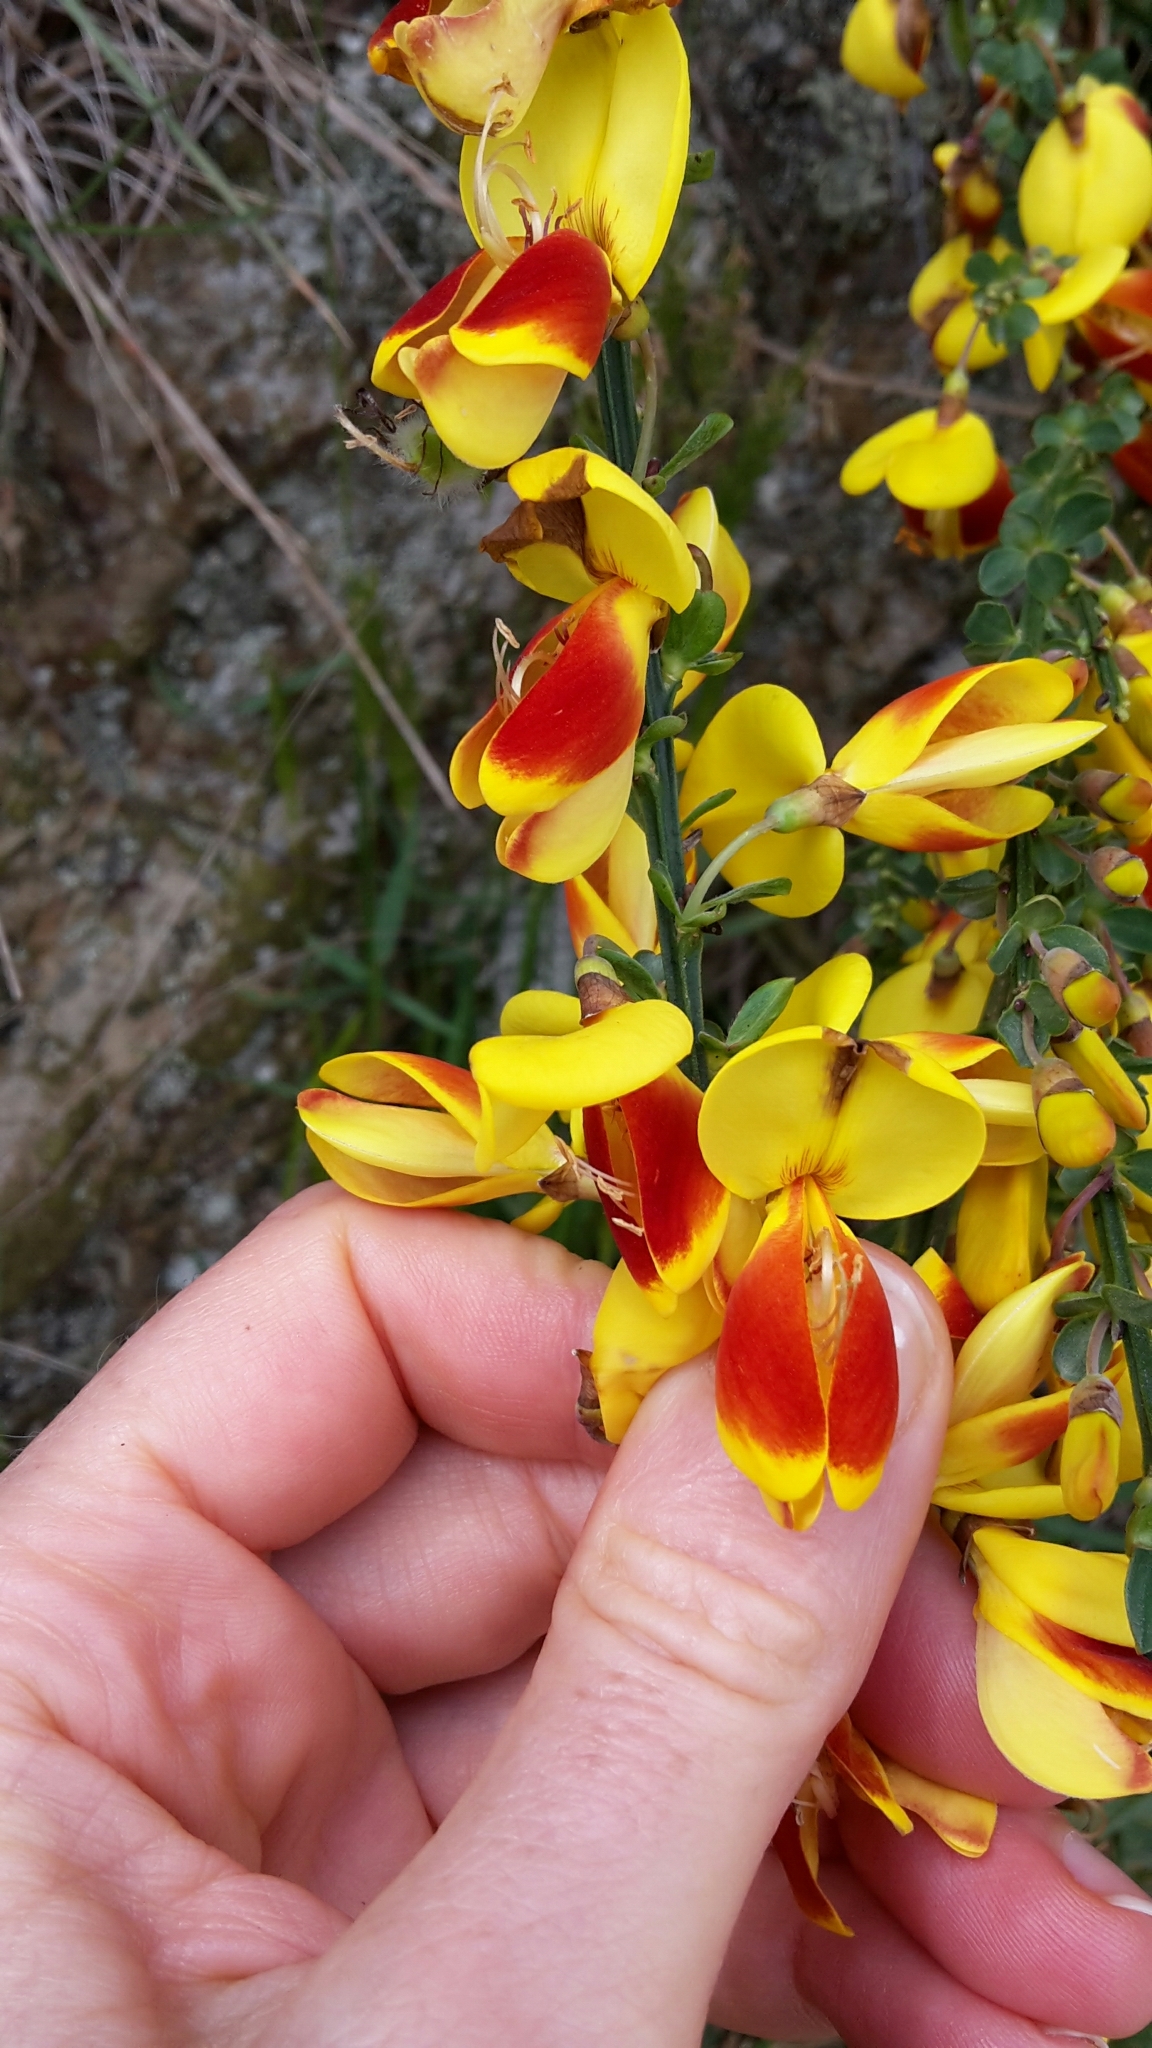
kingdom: Plantae
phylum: Tracheophyta
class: Magnoliopsida
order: Fabales
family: Fabaceae
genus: Cytisus
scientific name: Cytisus scoparius
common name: Scotch broom
